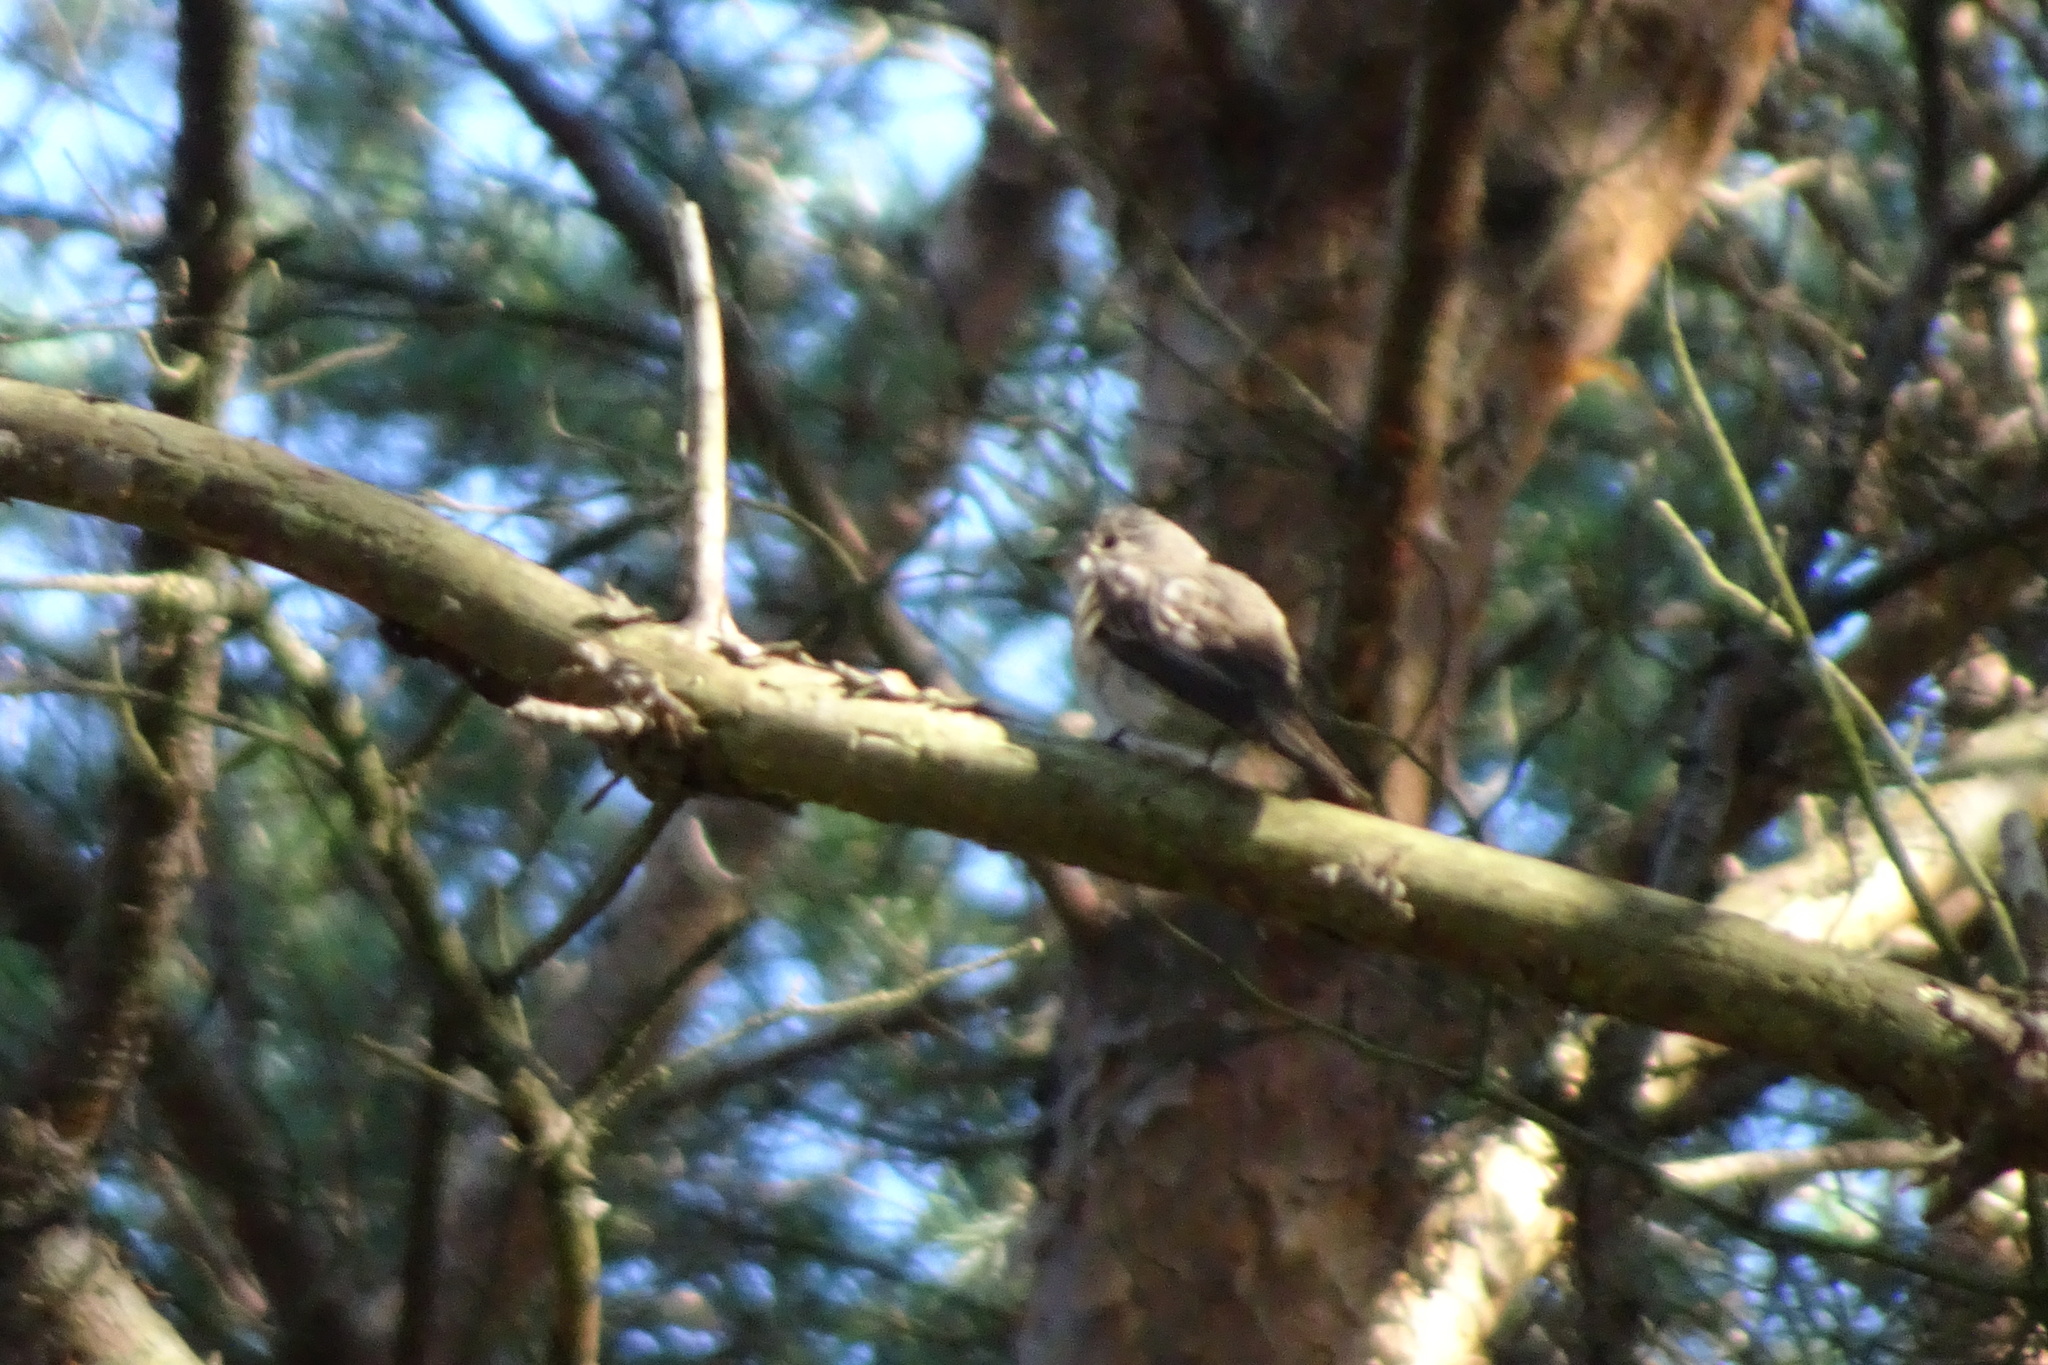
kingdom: Animalia
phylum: Chordata
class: Aves
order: Passeriformes
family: Muscicapidae
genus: Muscicapa
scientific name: Muscicapa striata
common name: Spotted flycatcher
